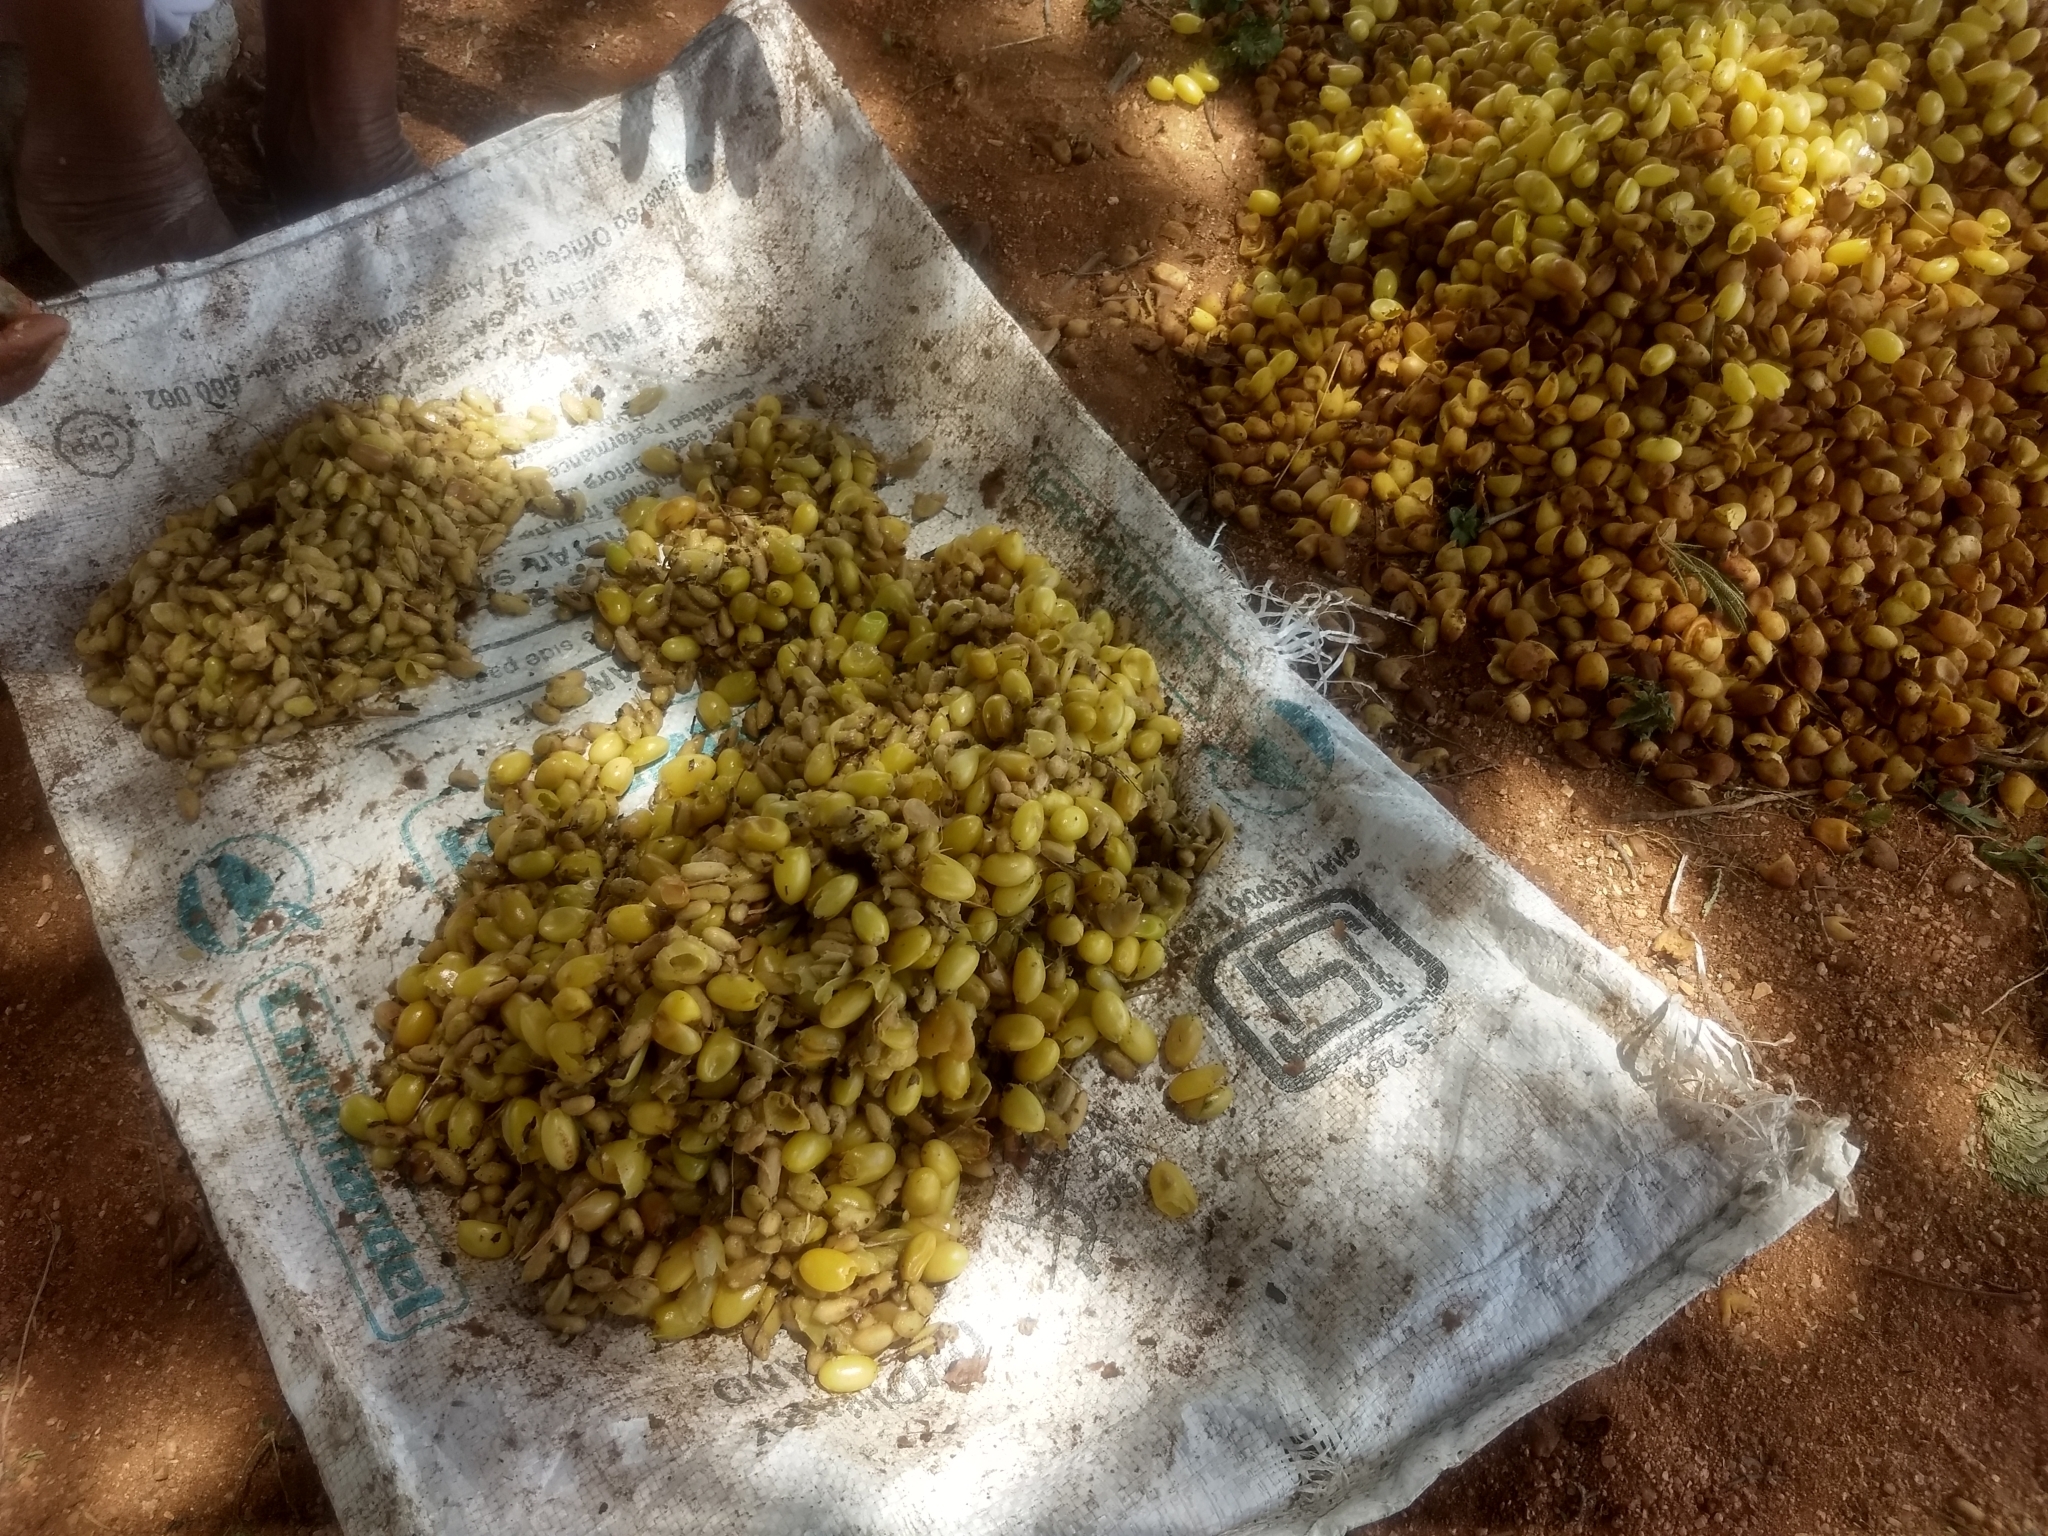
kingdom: Plantae
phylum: Tracheophyta
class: Magnoliopsida
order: Sapindales
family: Meliaceae
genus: Azadirachta
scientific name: Azadirachta indica
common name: Neem
